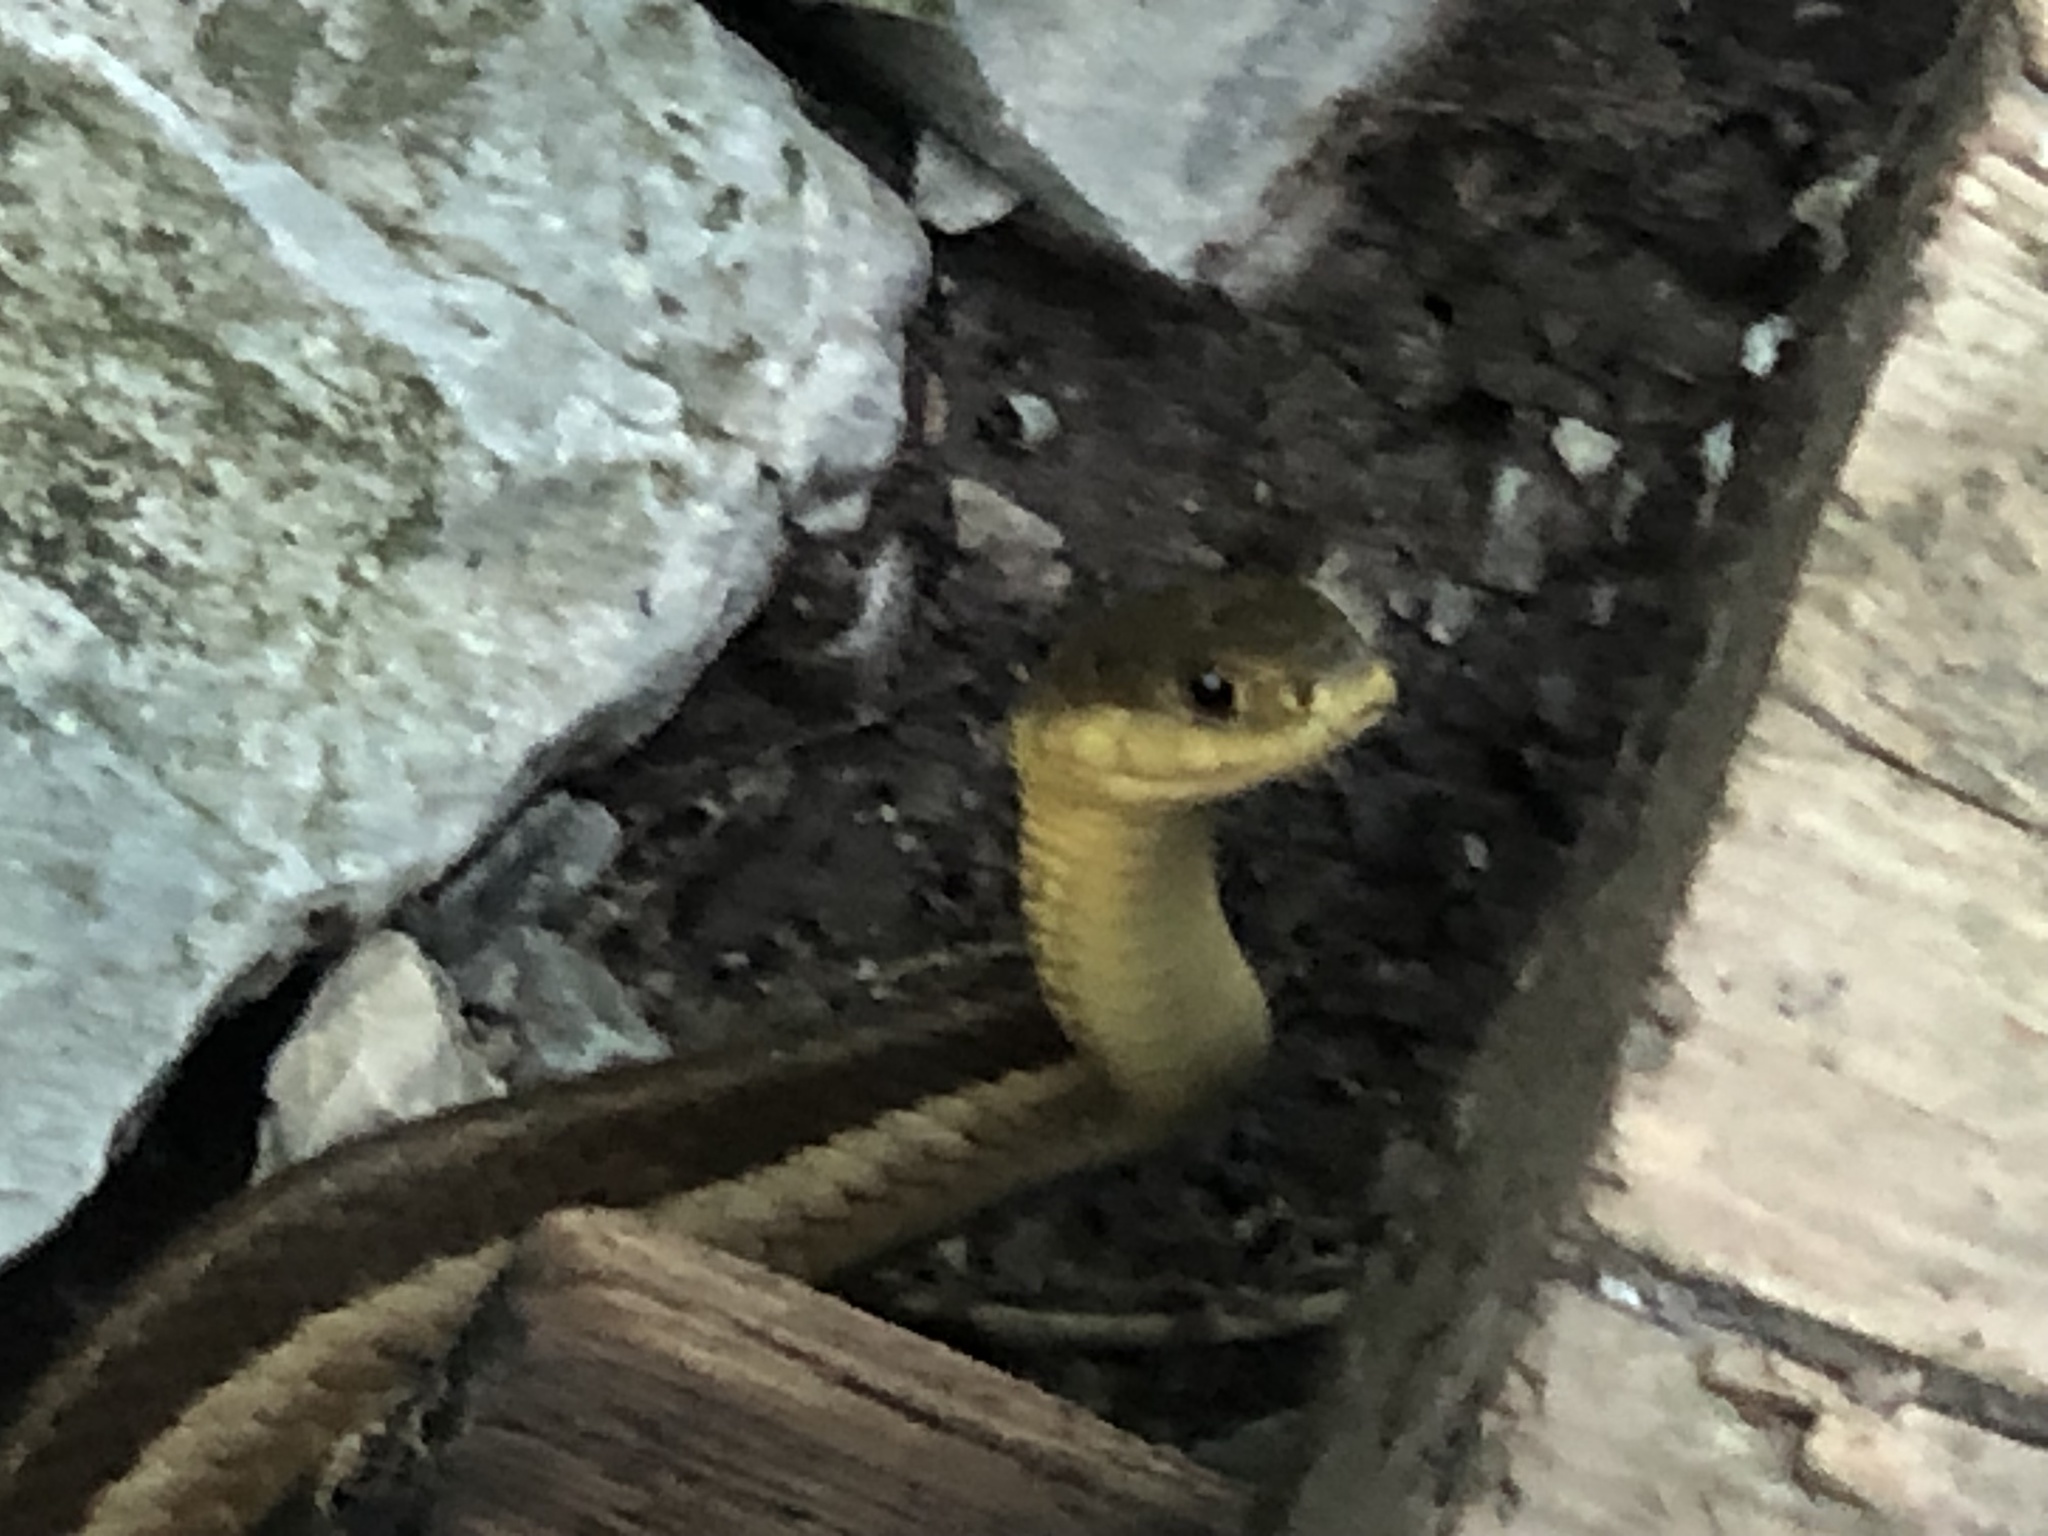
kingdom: Animalia
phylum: Chordata
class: Squamata
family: Colubridae
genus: Thamnophis
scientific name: Thamnophis sirtalis
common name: Common garter snake
